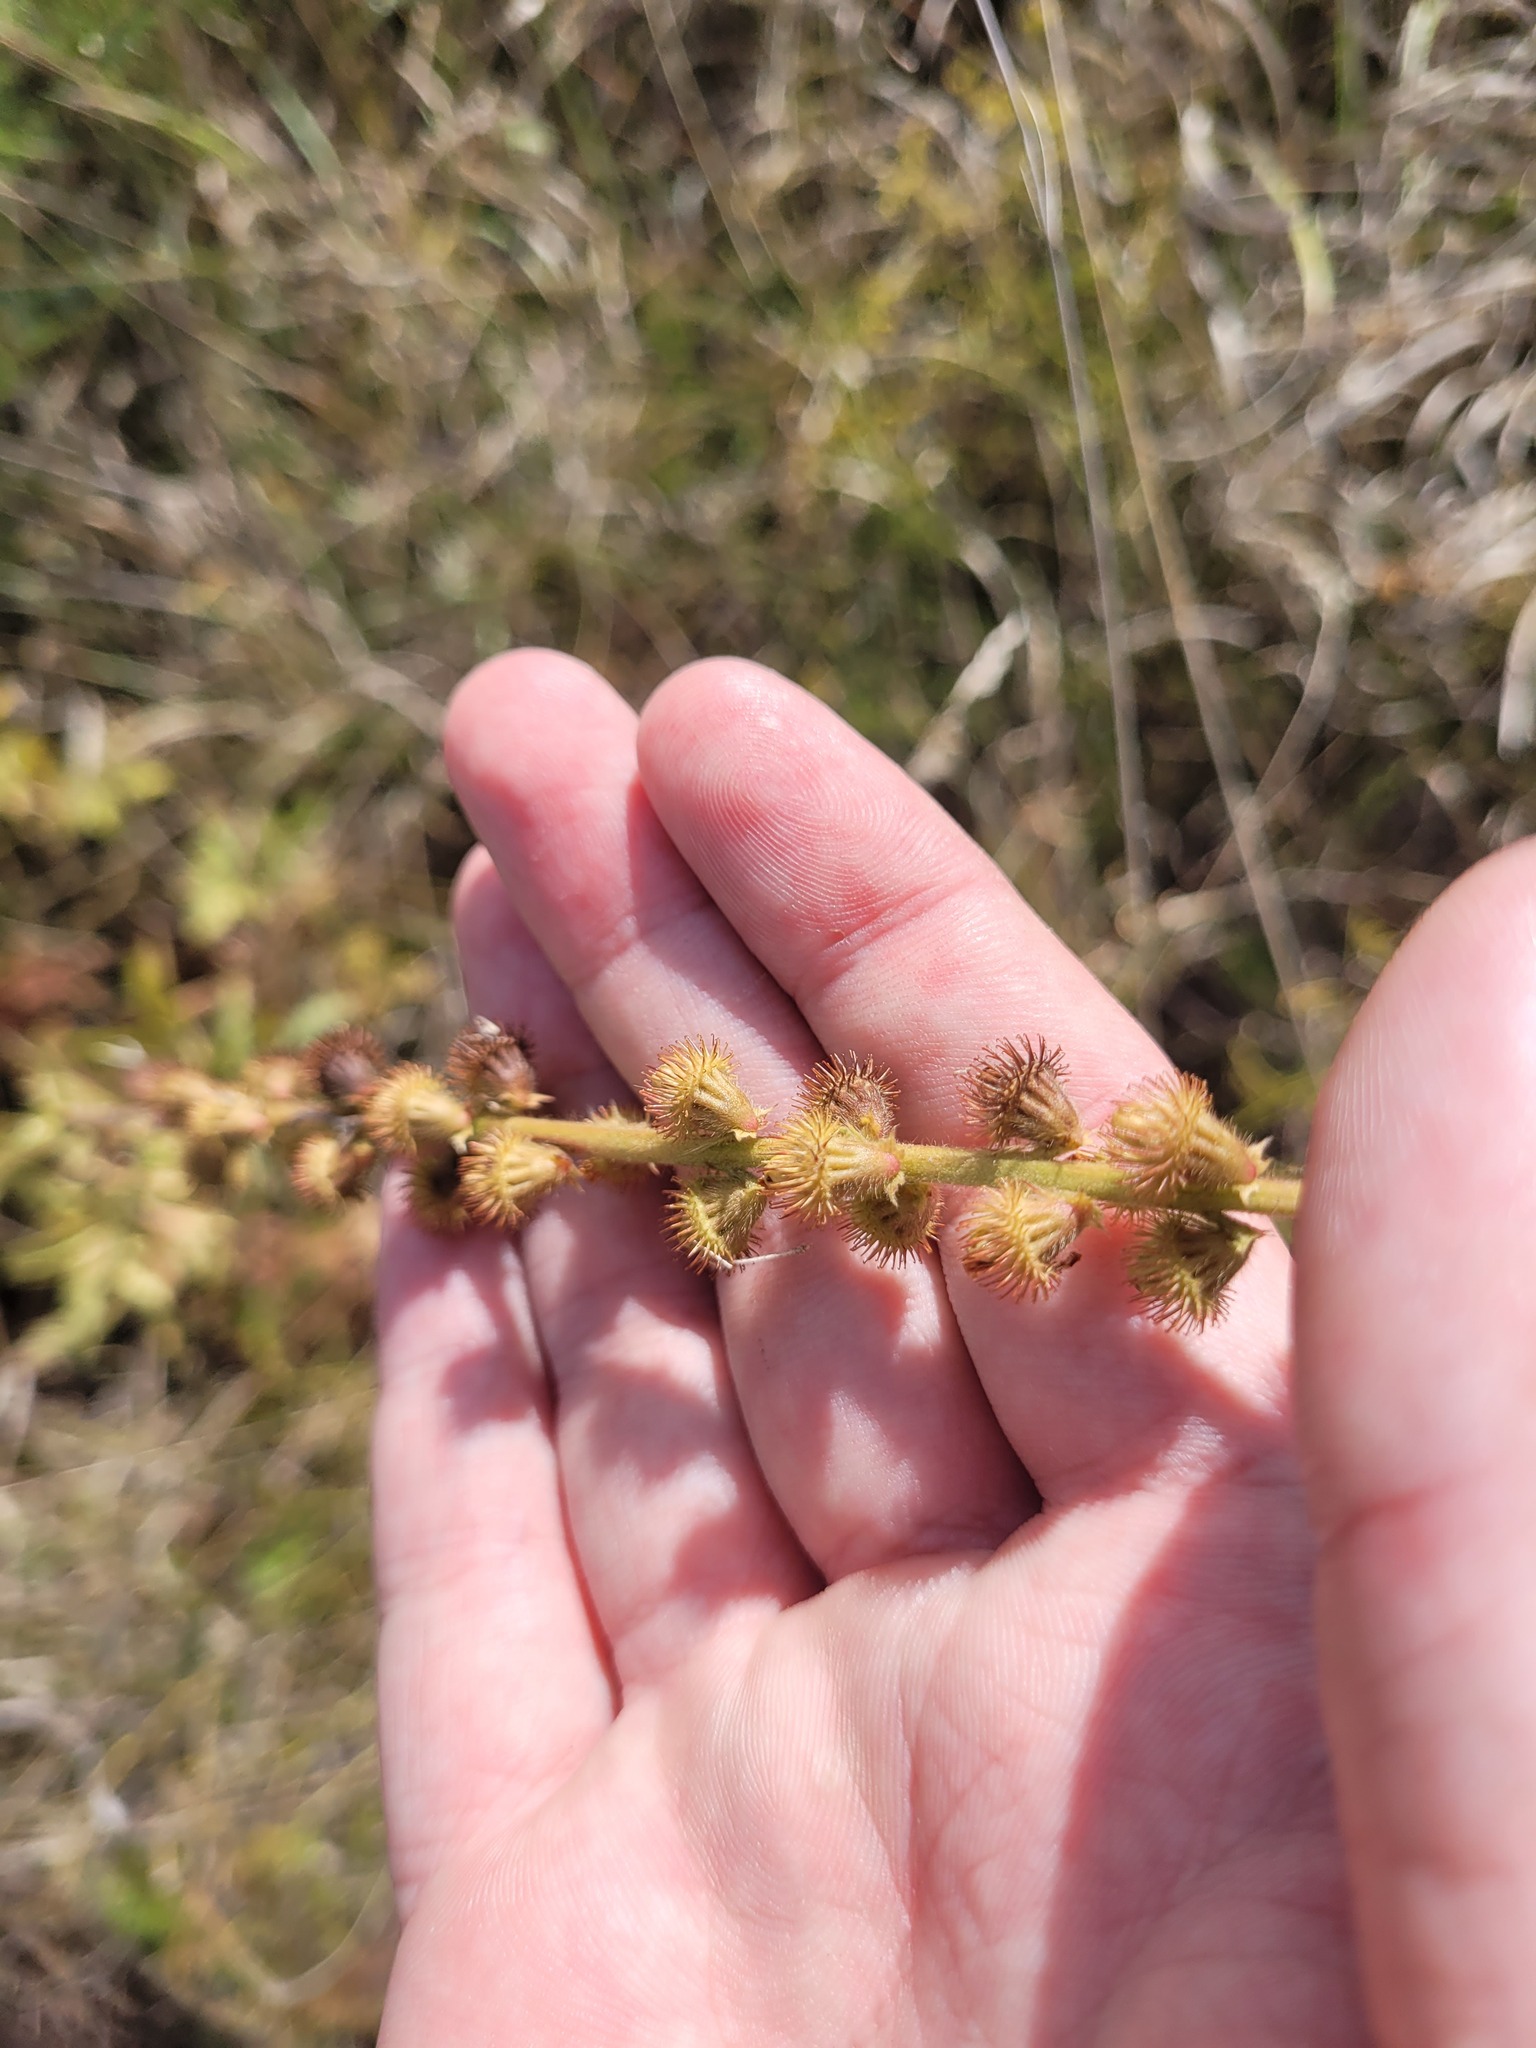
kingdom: Plantae
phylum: Tracheophyta
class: Magnoliopsida
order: Rosales
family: Rosaceae
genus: Agrimonia
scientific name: Agrimonia eupatoria
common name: Agrimony
